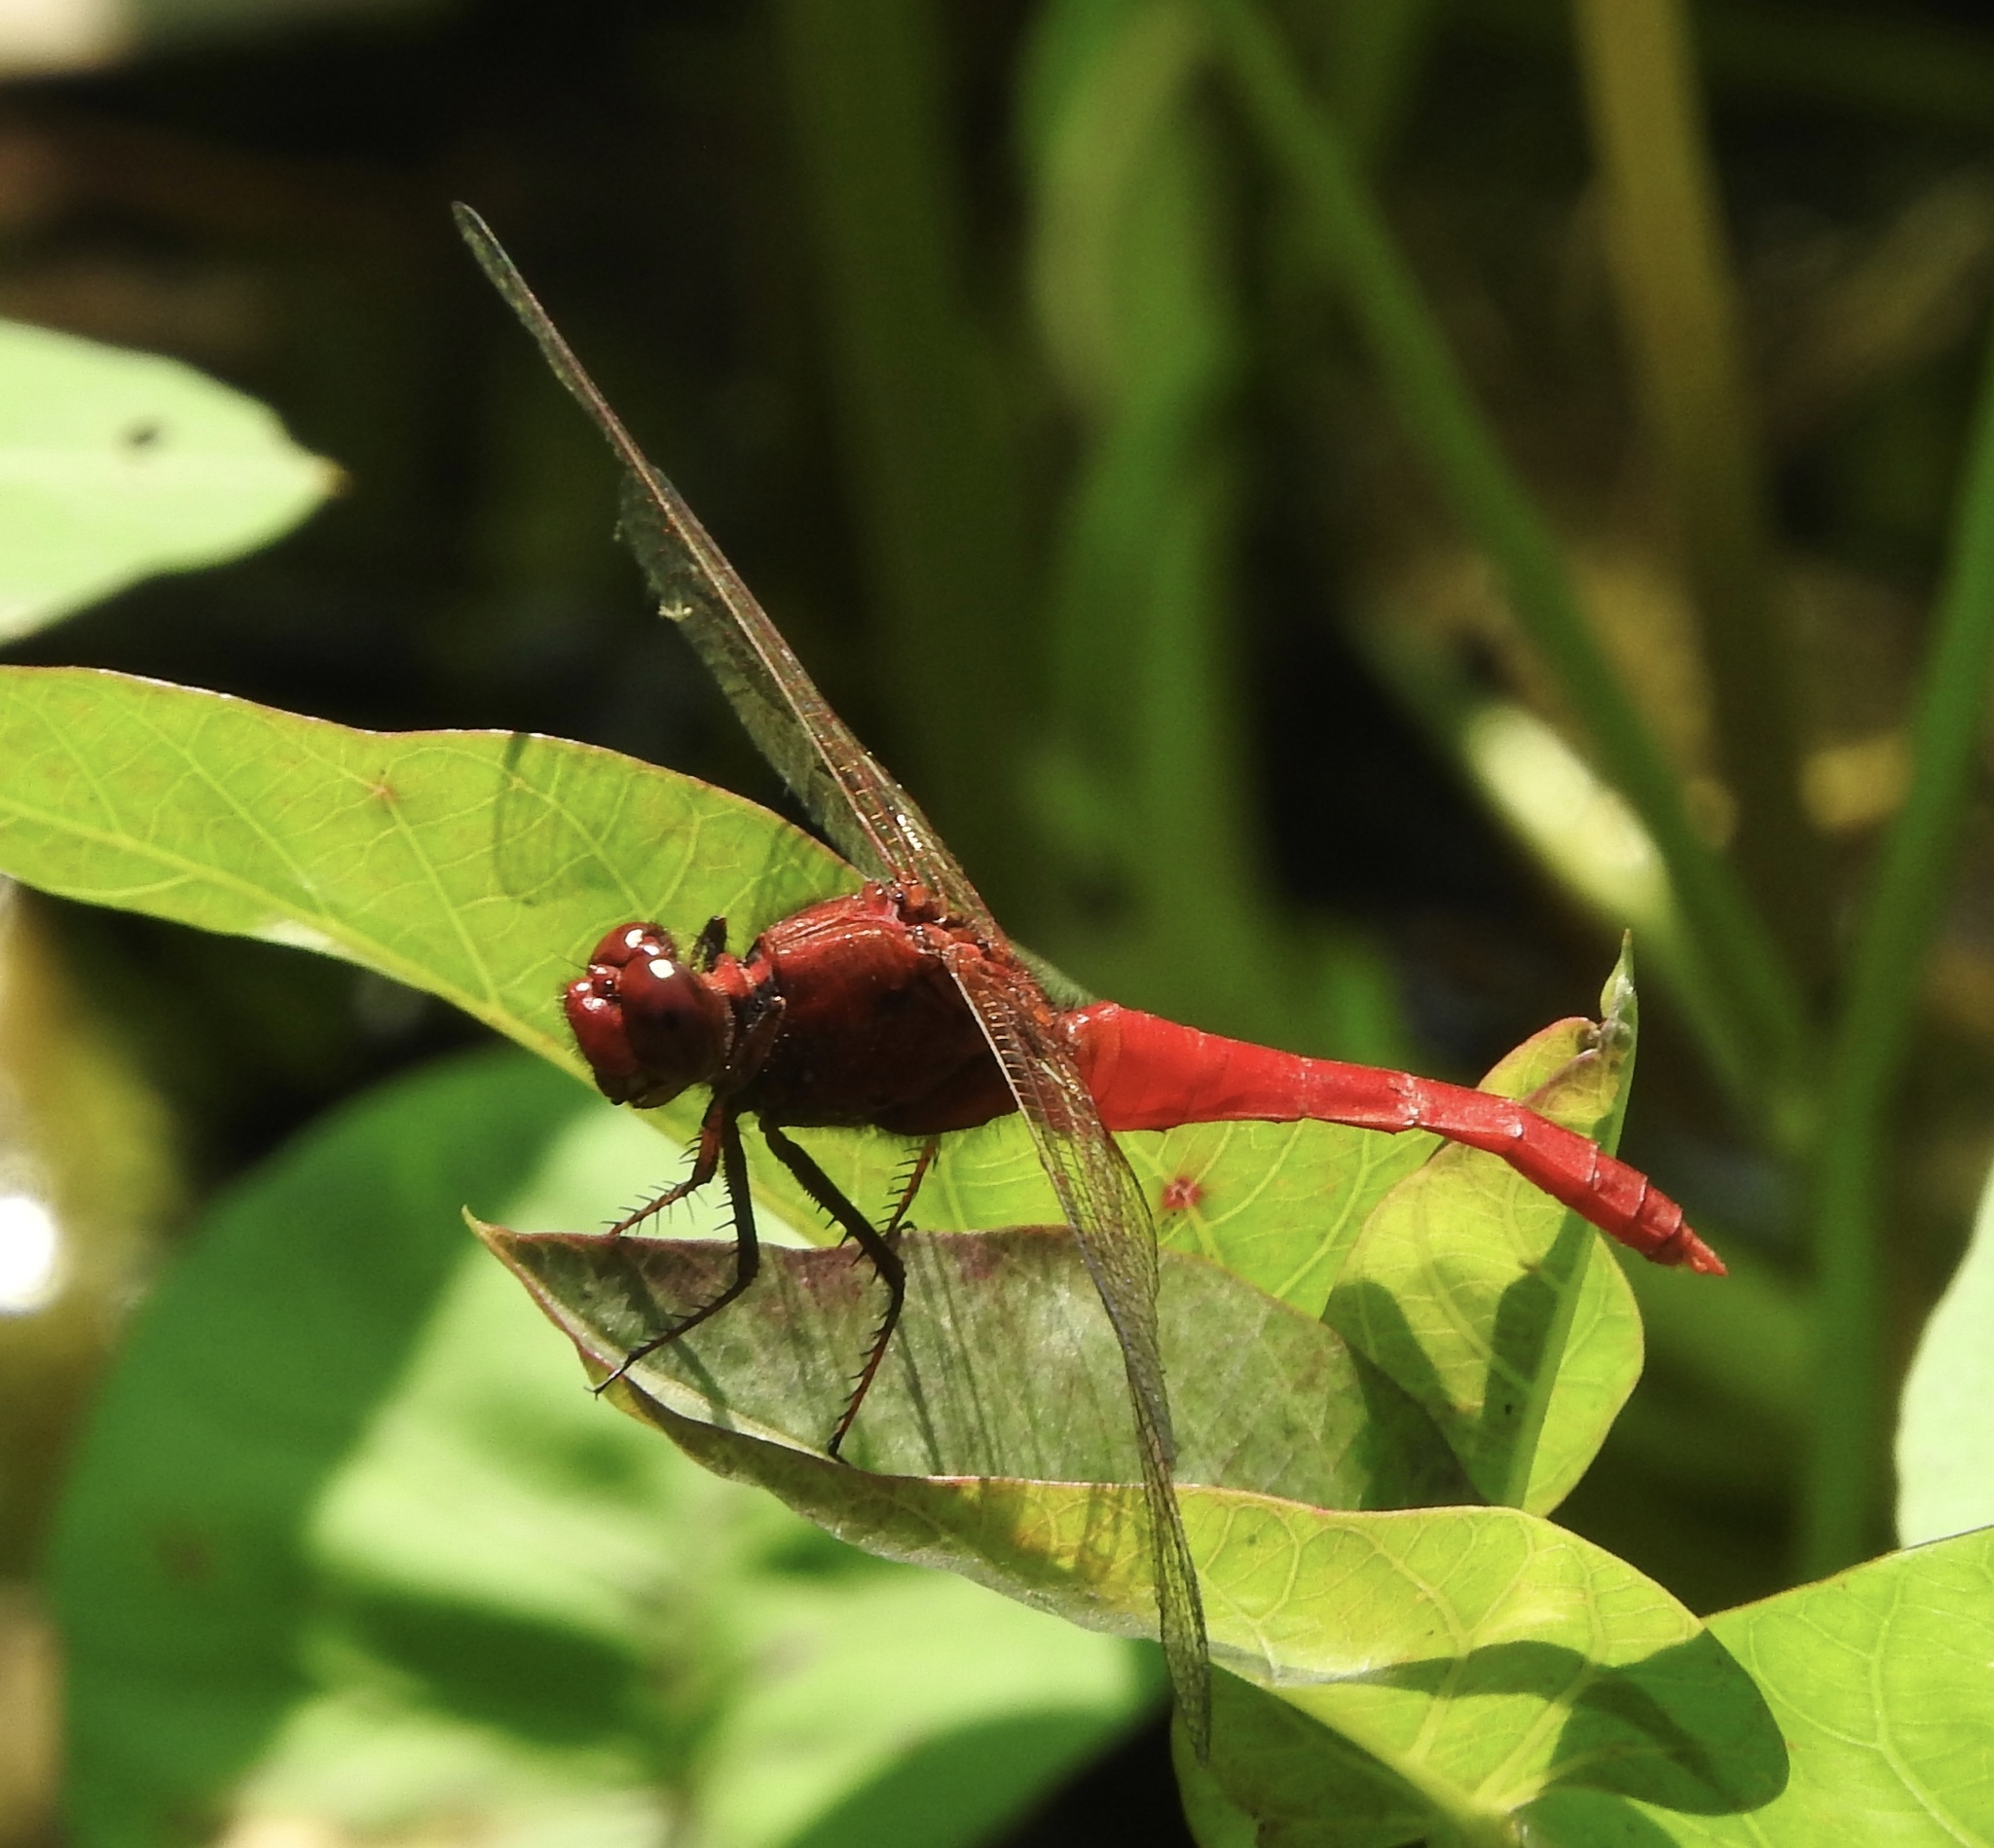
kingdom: Animalia
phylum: Arthropoda
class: Insecta
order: Odonata
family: Libellulidae
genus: Rhodothemis
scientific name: Rhodothemis rufa
